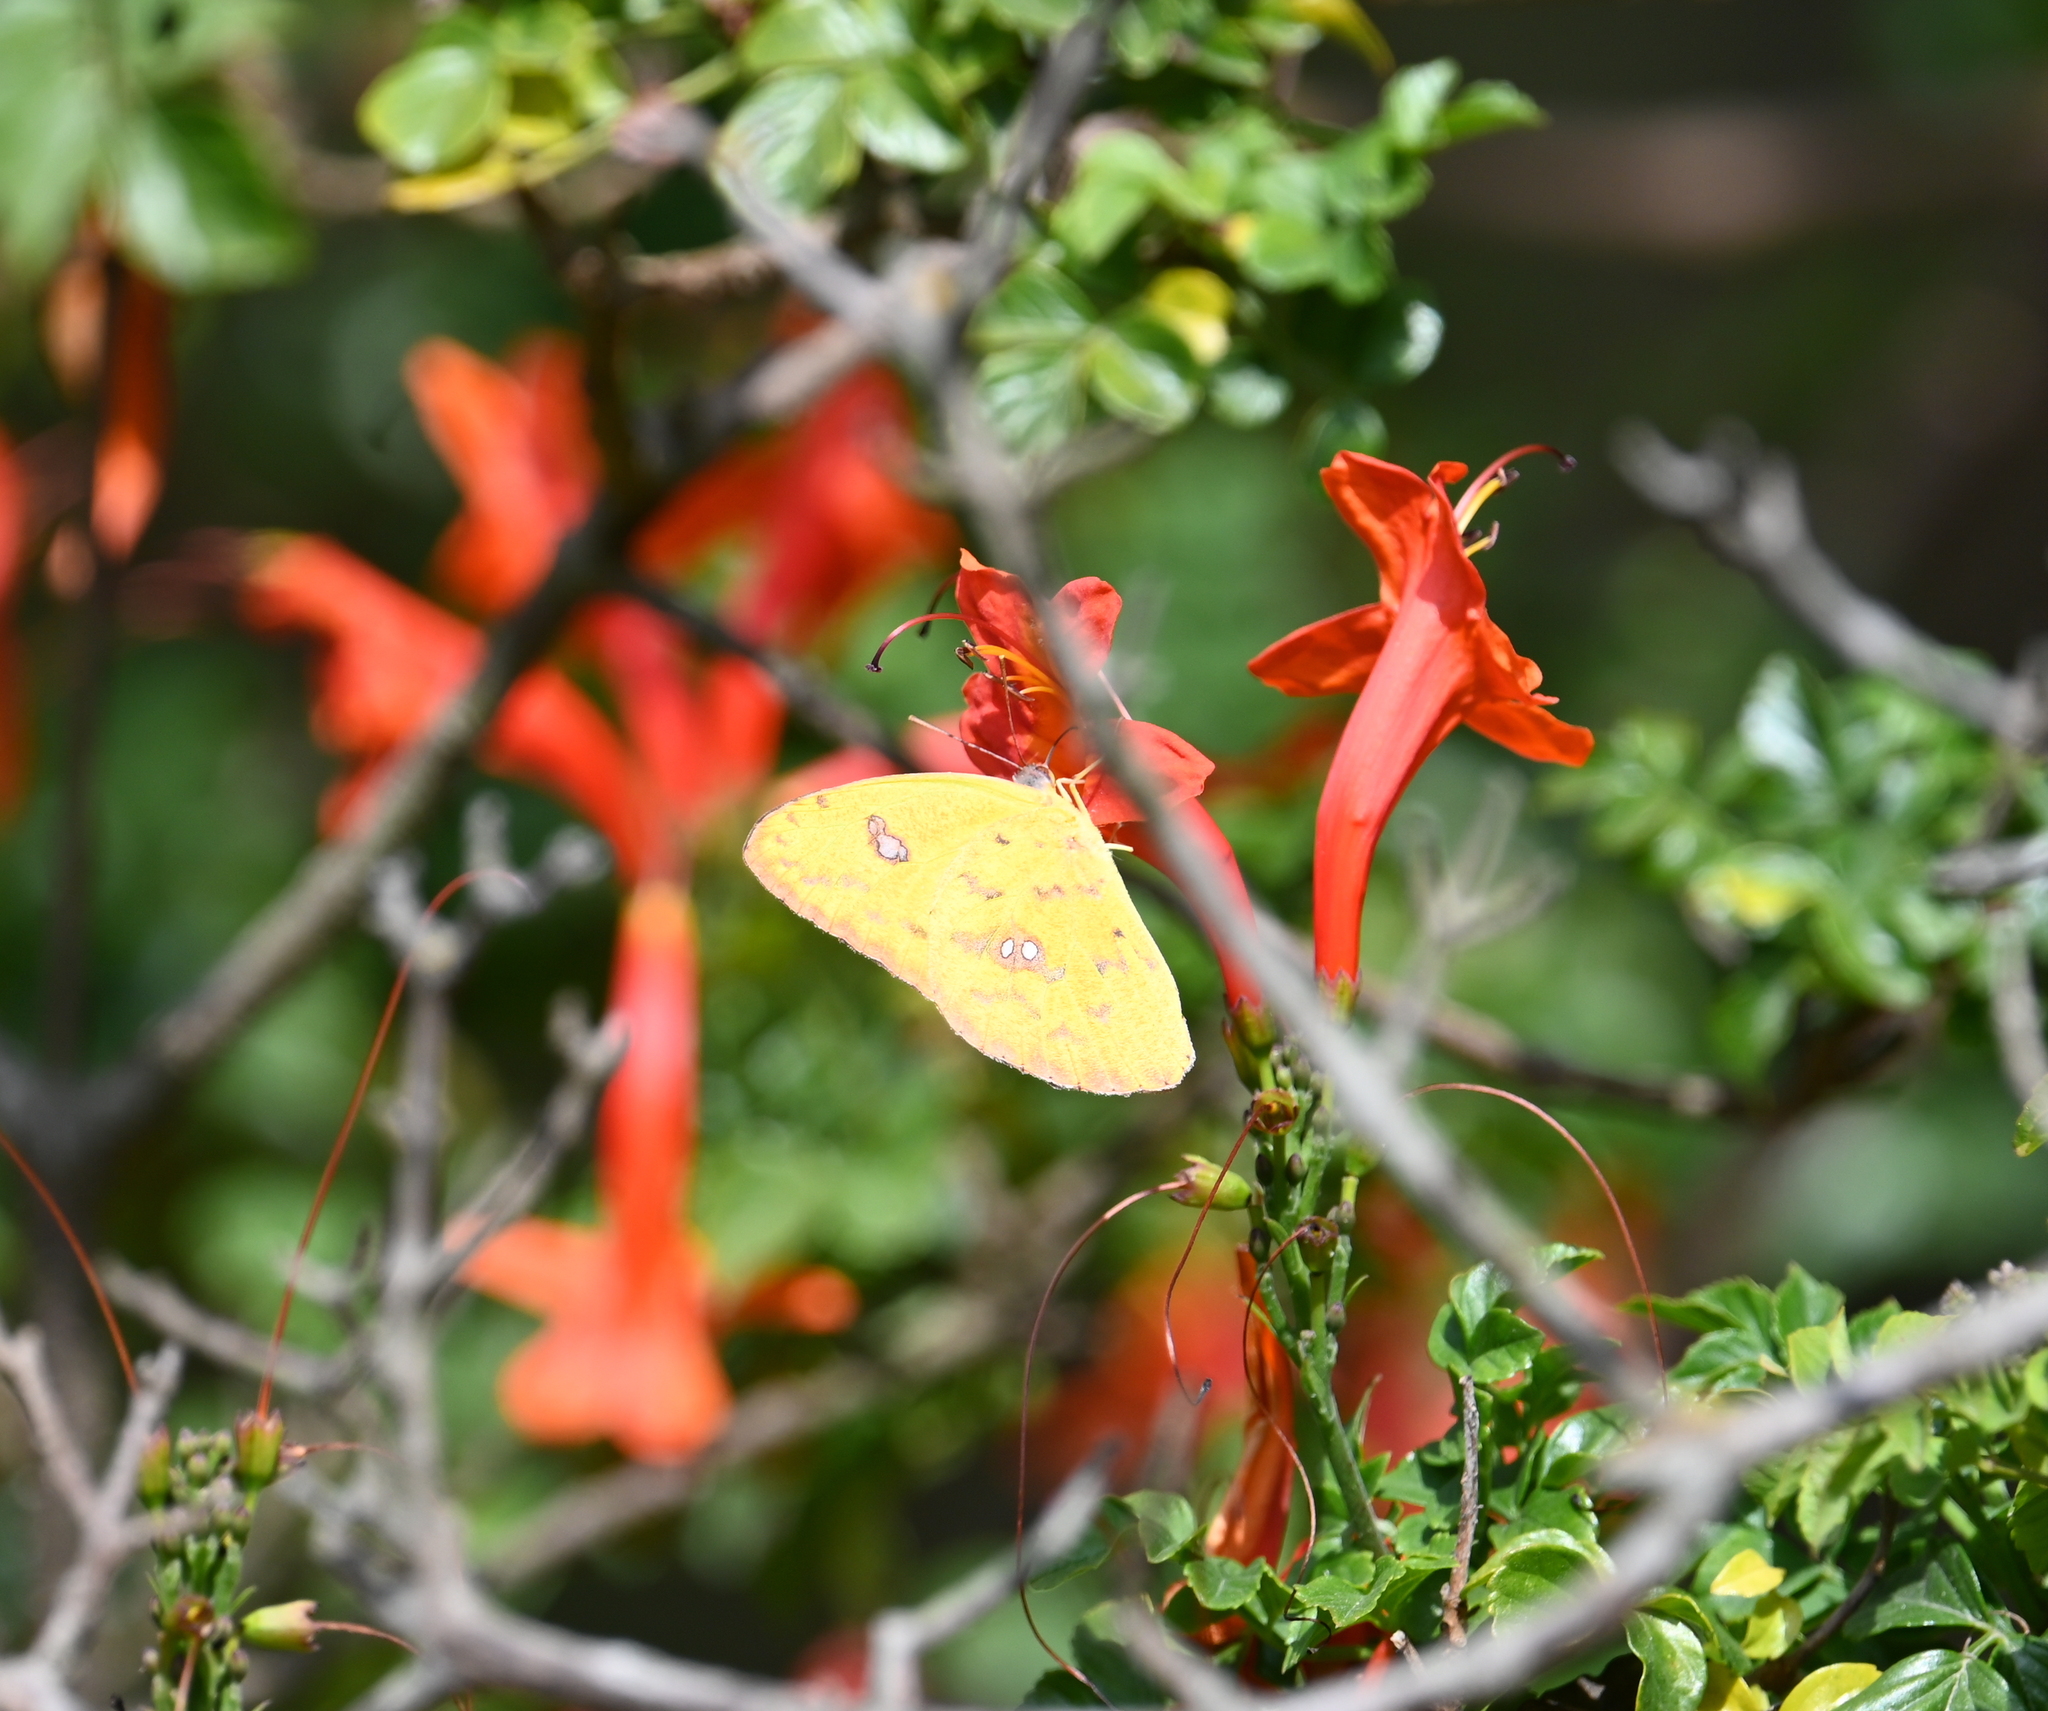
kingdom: Animalia
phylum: Arthropoda
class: Insecta
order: Lepidoptera
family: Pieridae
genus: Phoebis
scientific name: Phoebis sennae
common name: Cloudless sulphur
